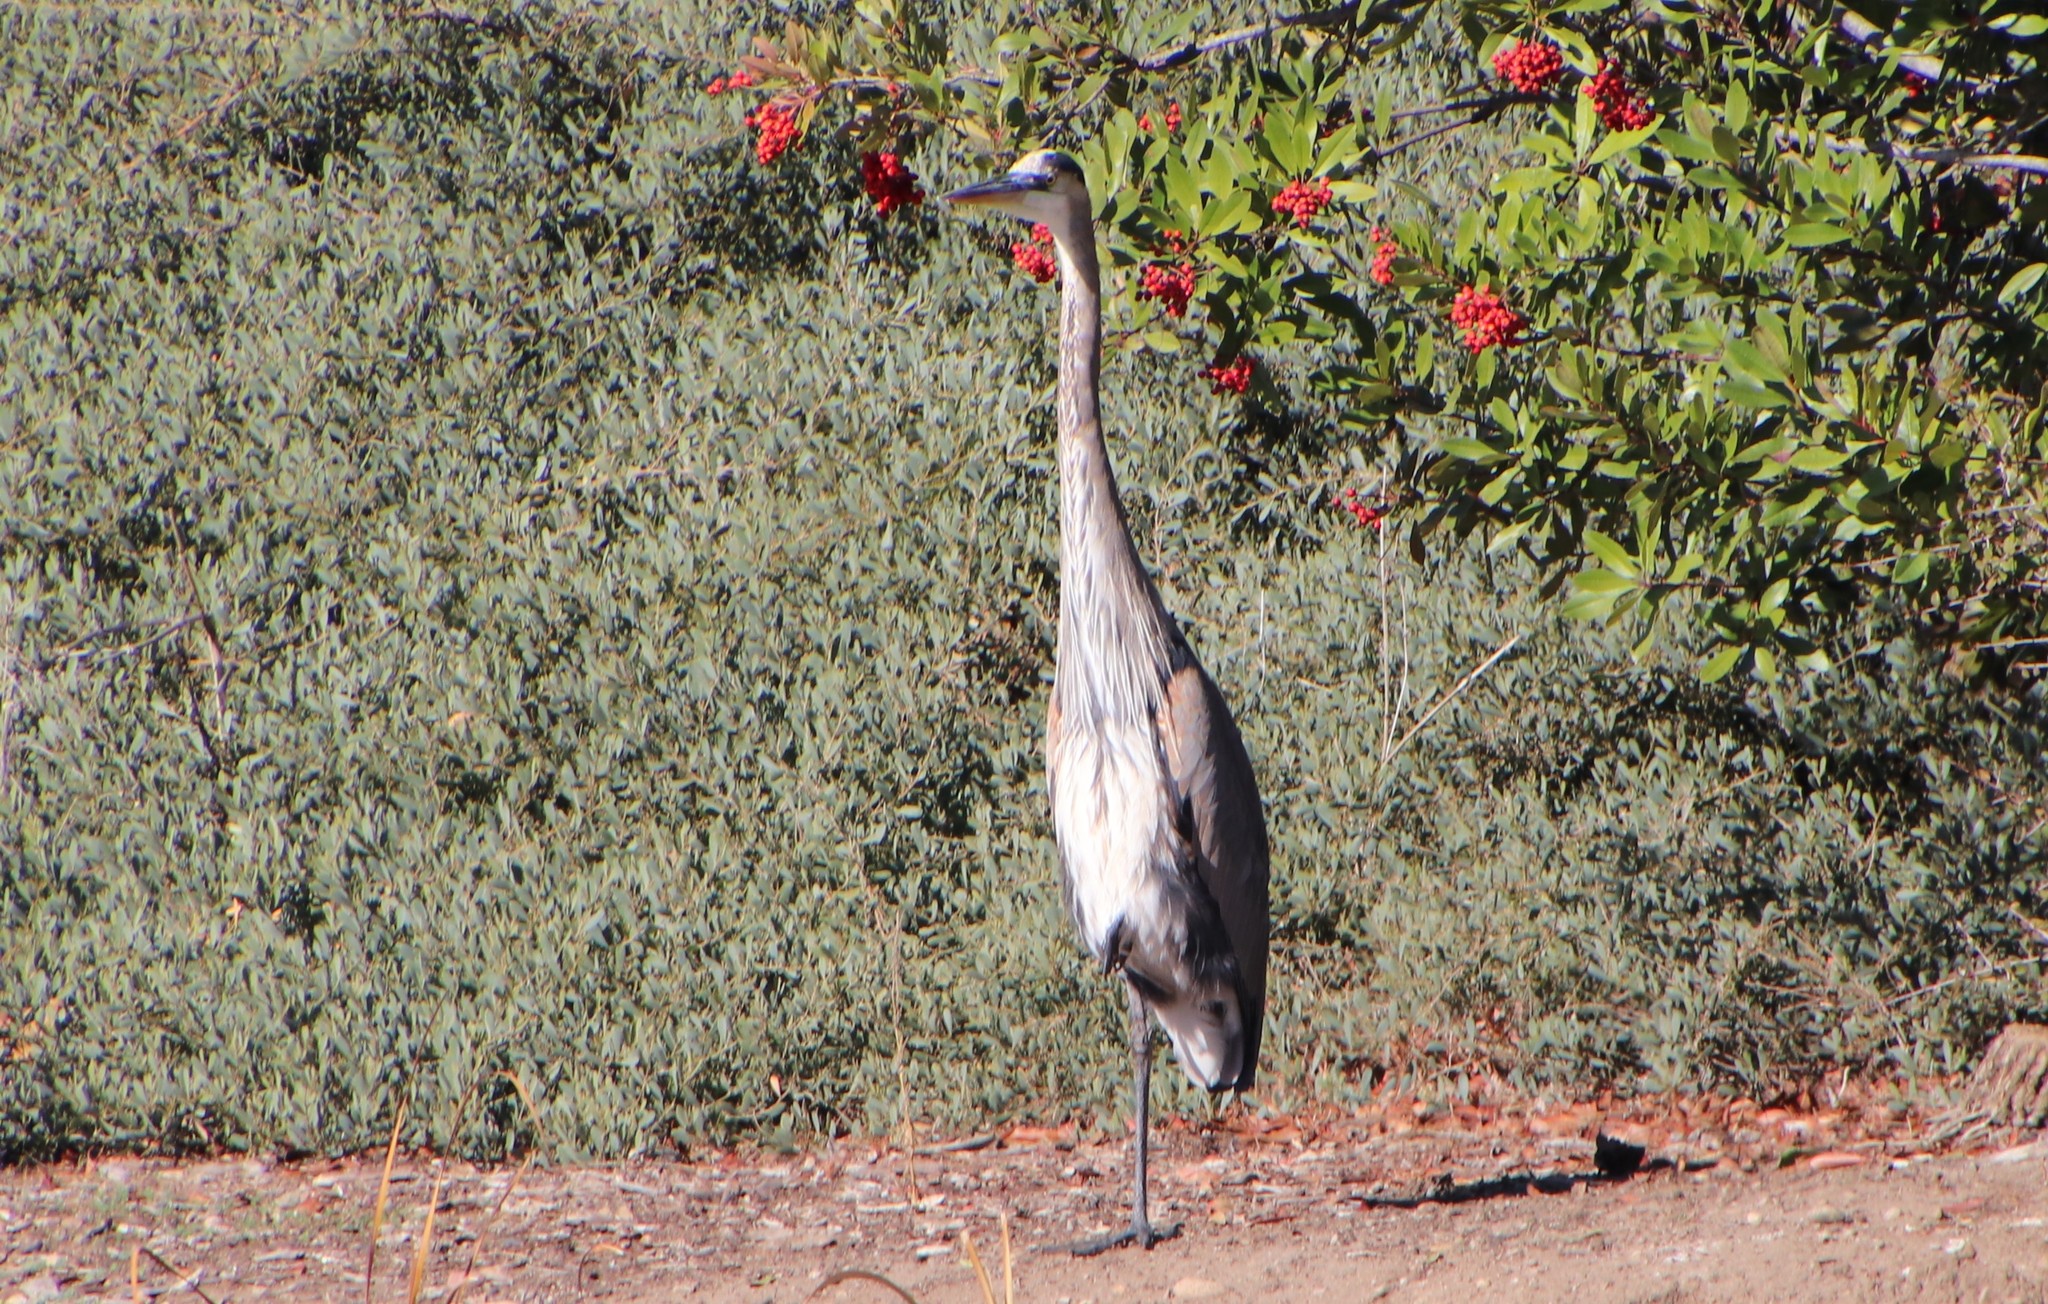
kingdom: Animalia
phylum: Chordata
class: Aves
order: Pelecaniformes
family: Ardeidae
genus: Ardea
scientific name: Ardea herodias
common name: Great blue heron
